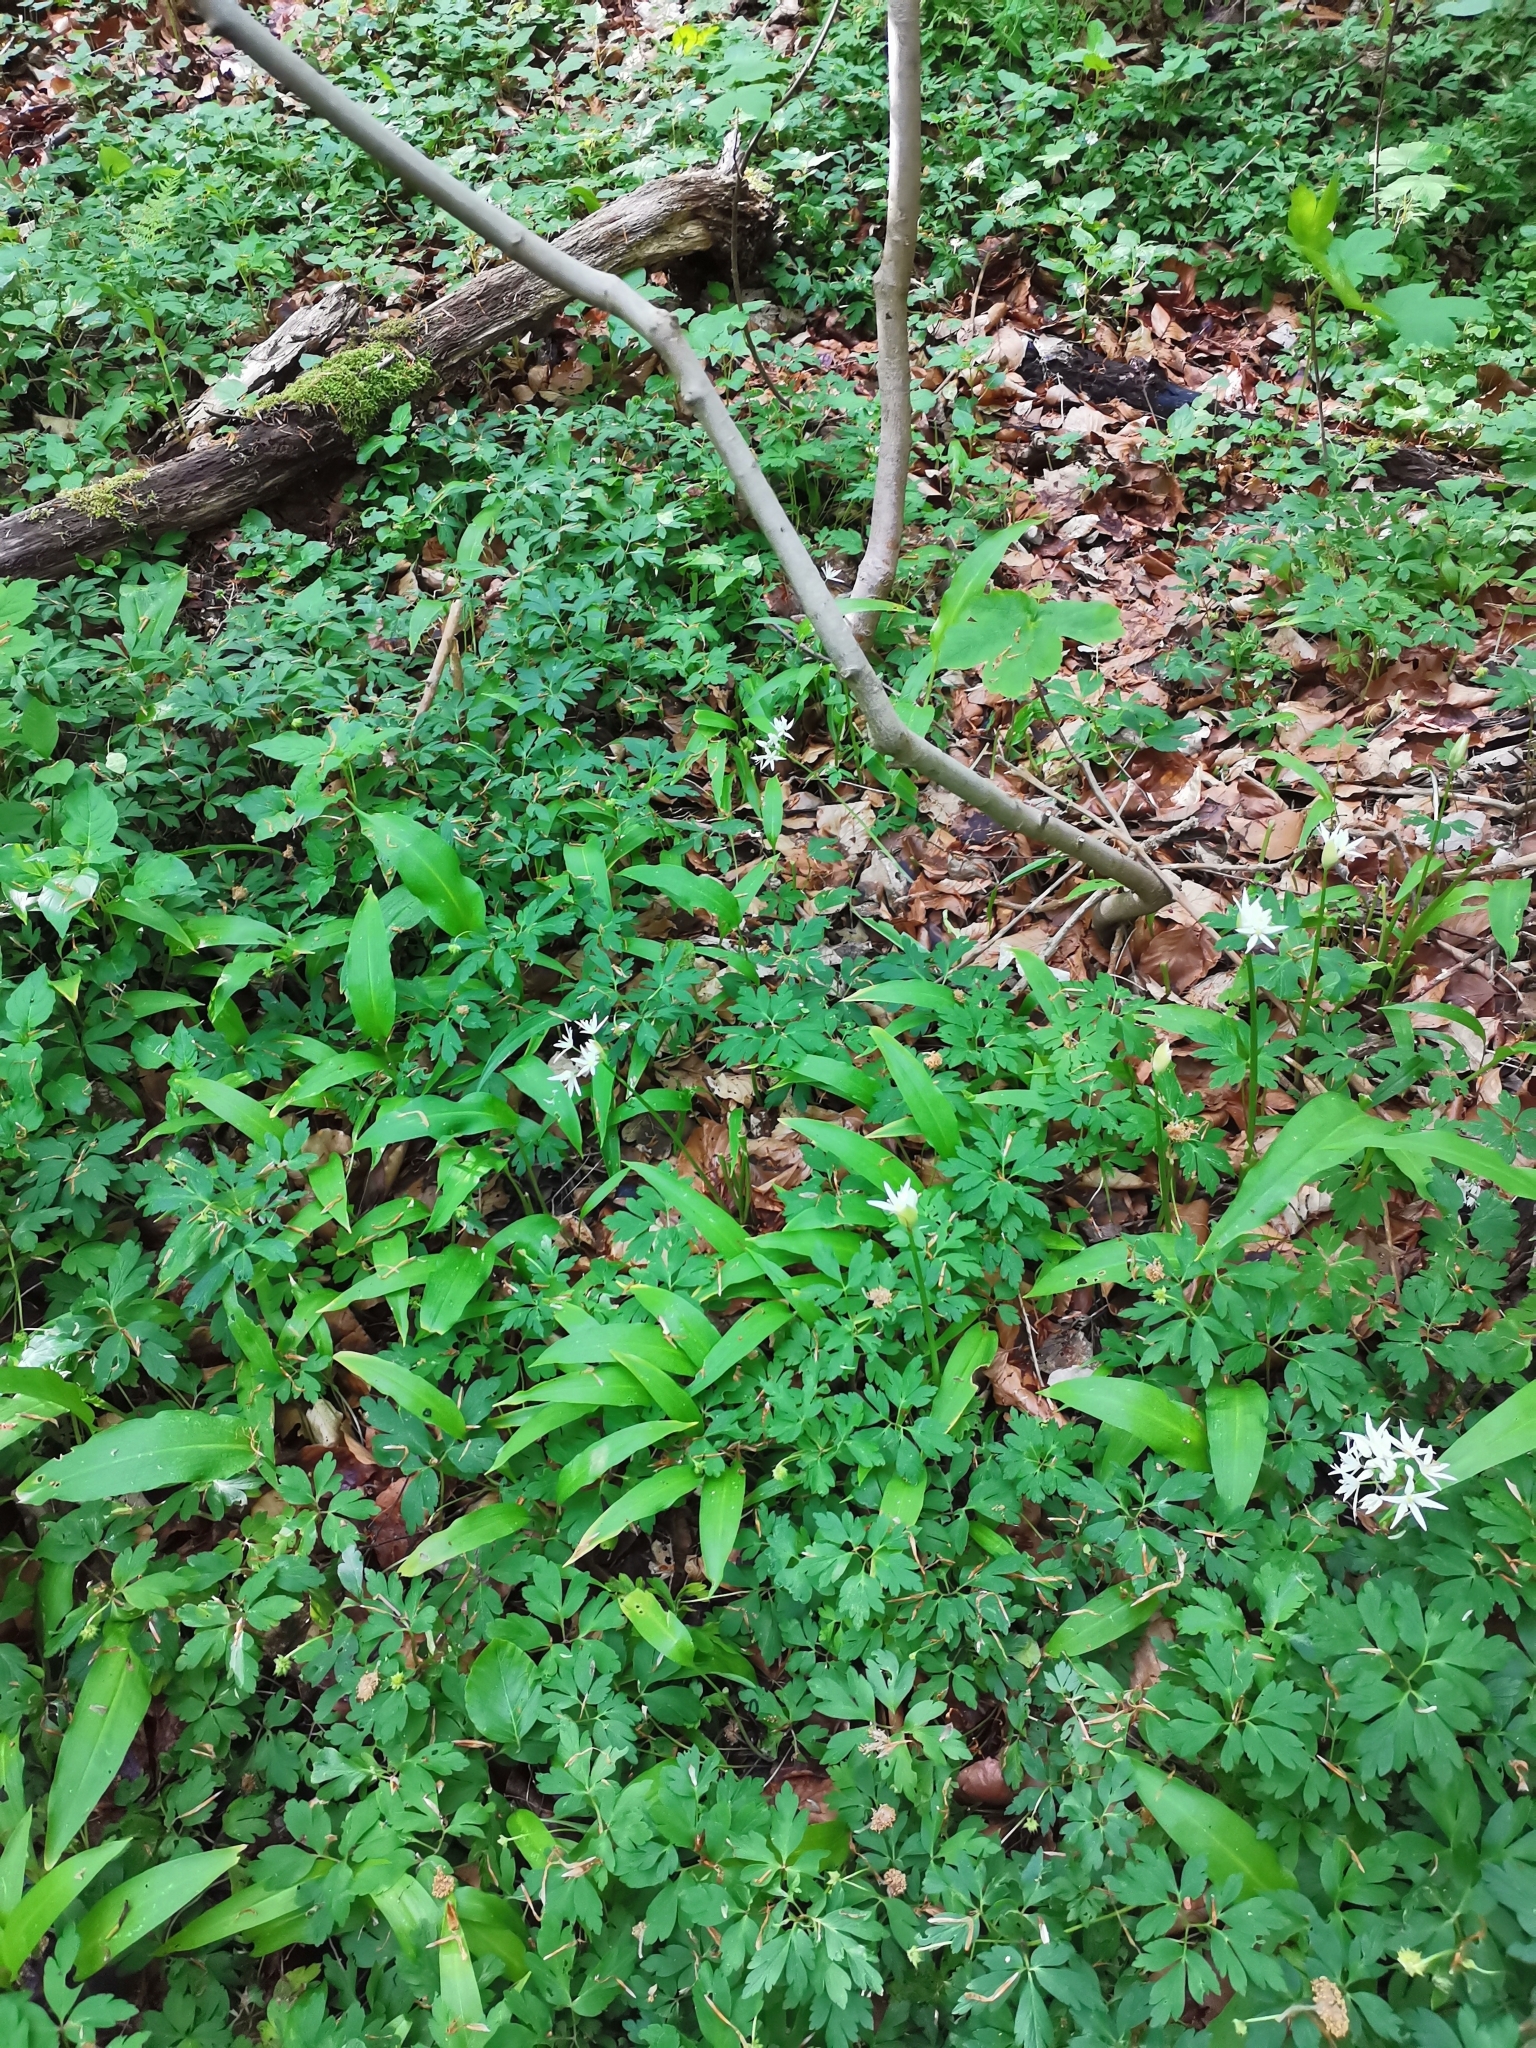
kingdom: Plantae
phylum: Tracheophyta
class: Liliopsida
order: Asparagales
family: Amaryllidaceae
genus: Allium
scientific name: Allium ursinum
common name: Ramsons
